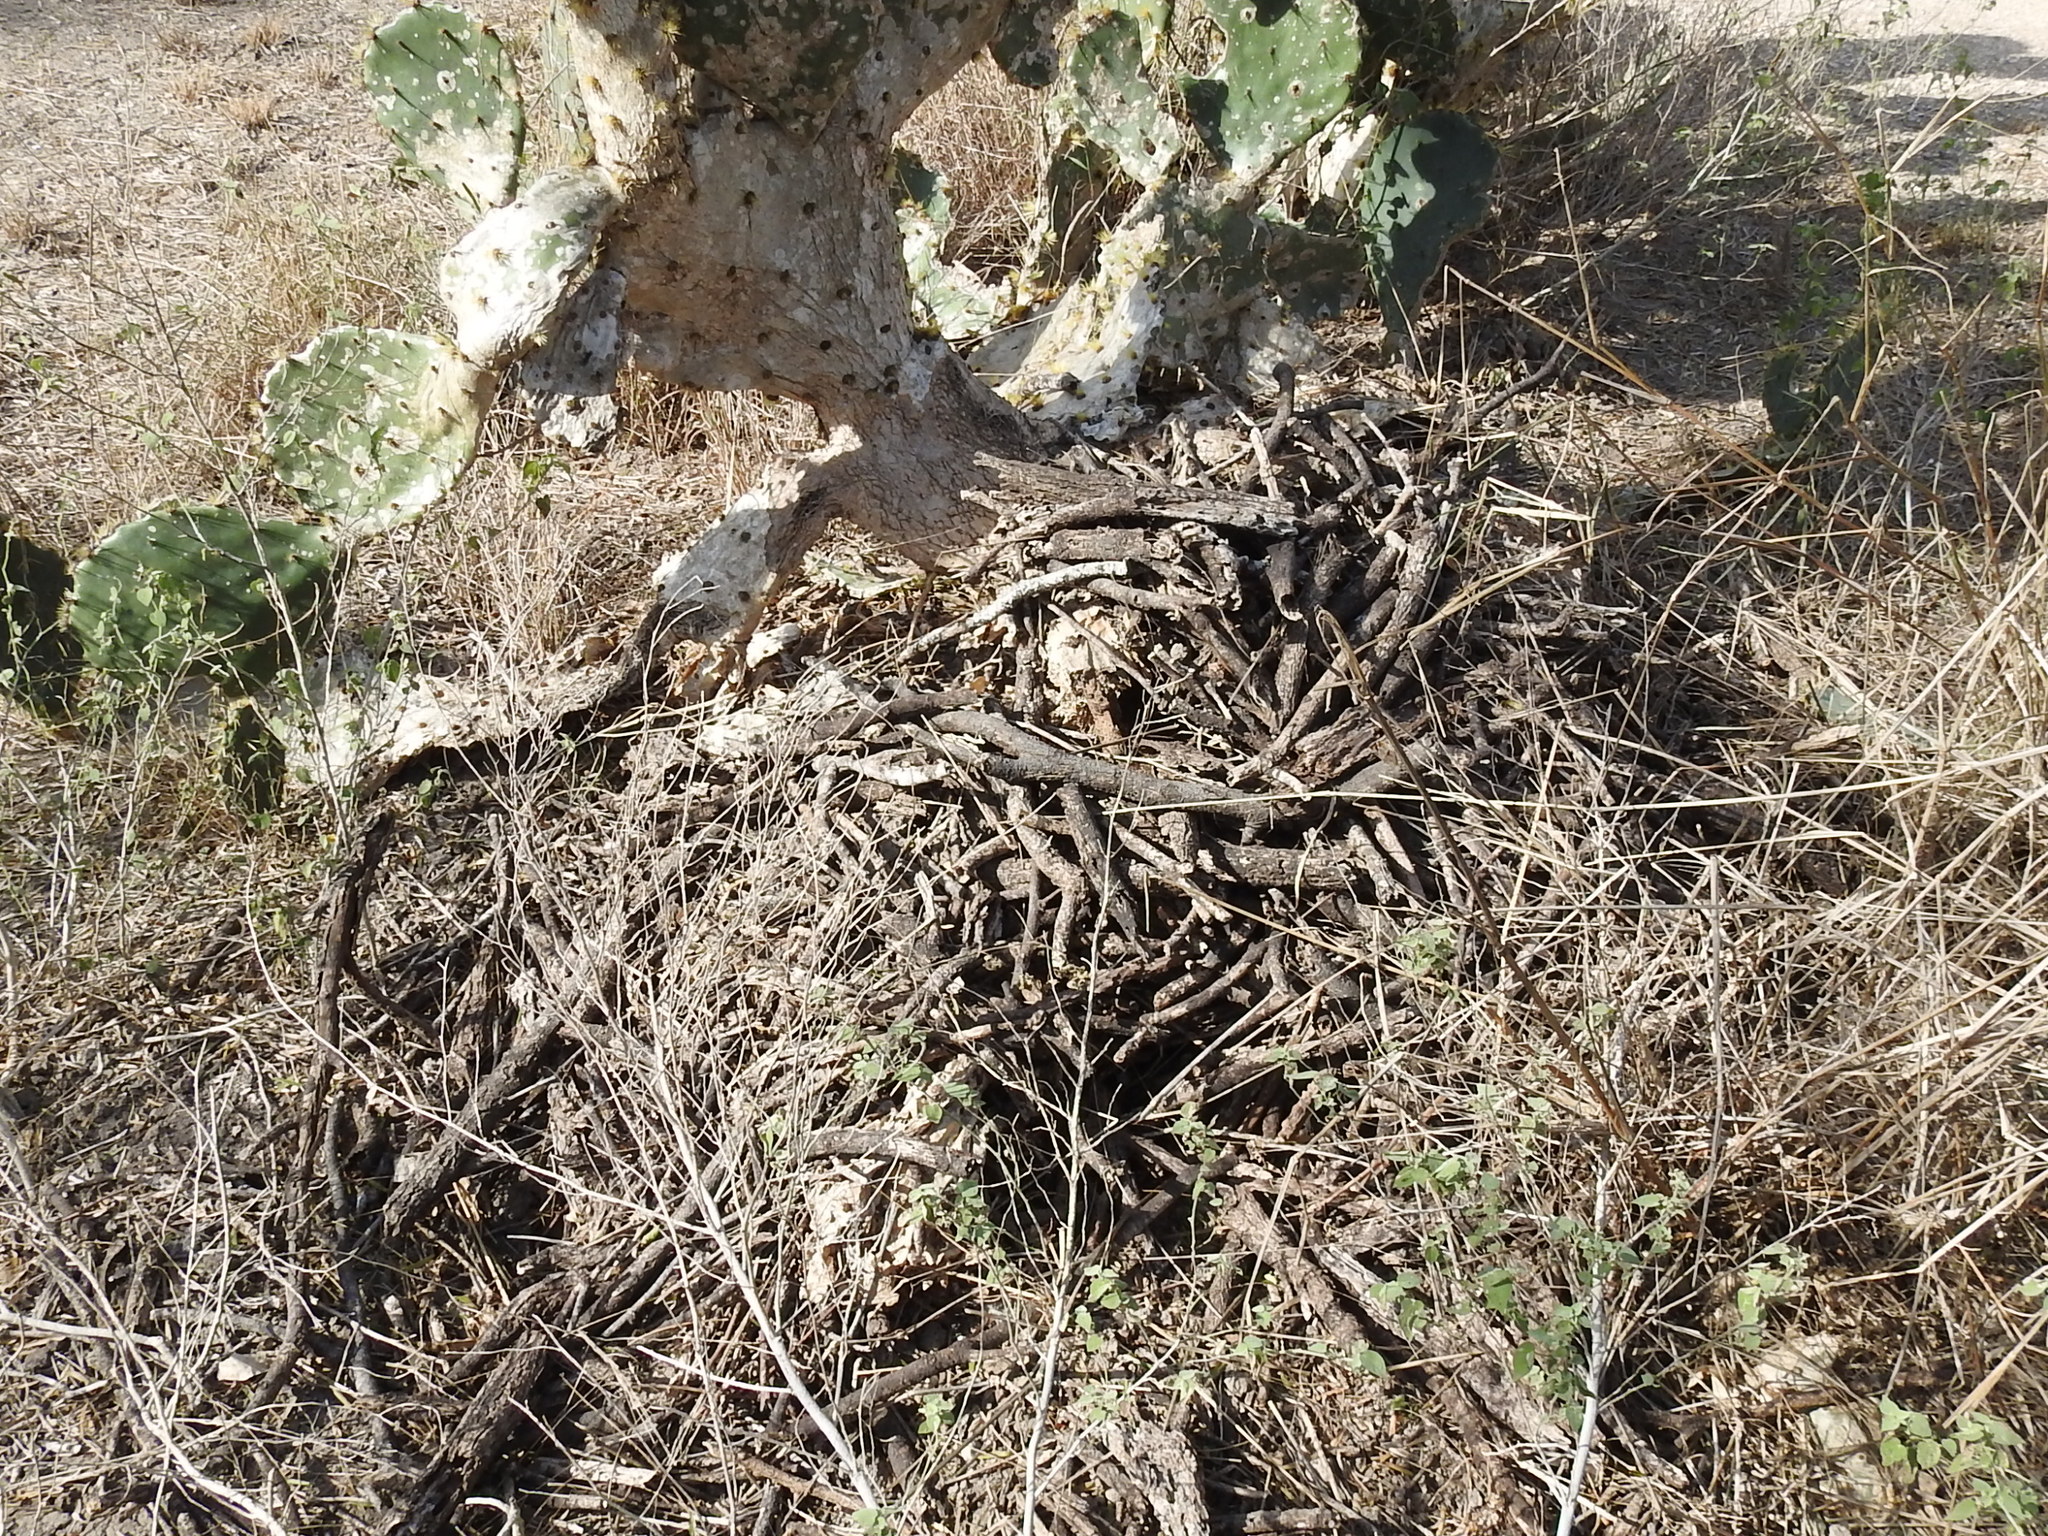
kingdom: Animalia
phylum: Chordata
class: Mammalia
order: Rodentia
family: Cricetidae
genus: Neotoma
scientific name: Neotoma micropus
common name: Southern plains woodrat
